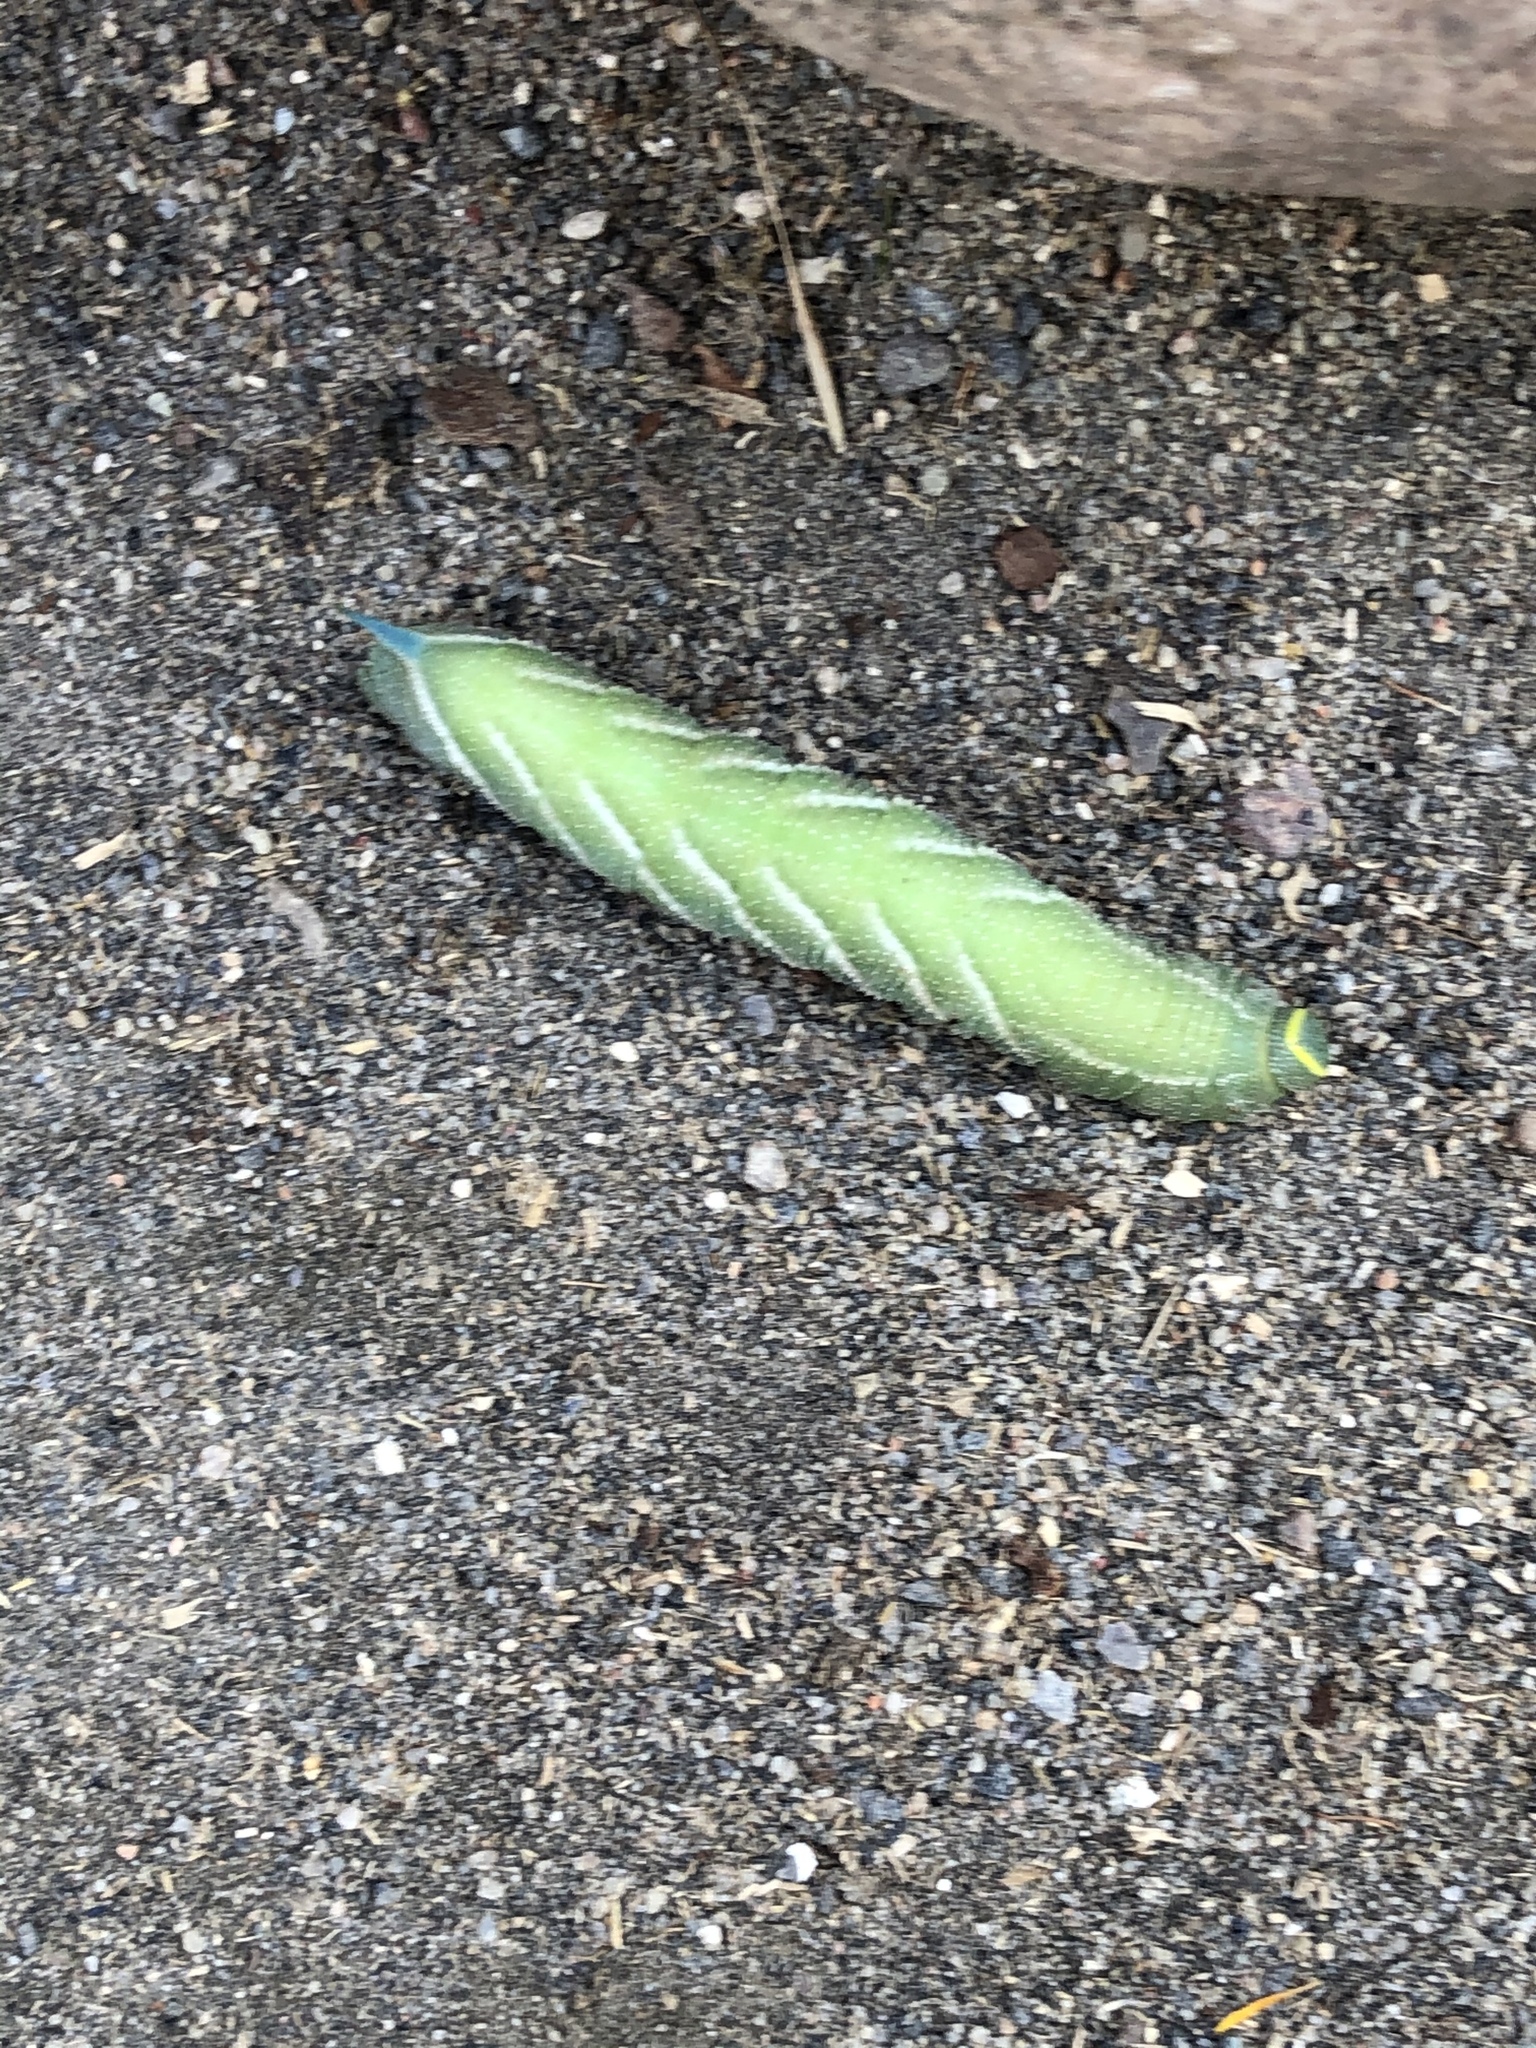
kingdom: Animalia
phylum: Arthropoda
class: Insecta
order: Lepidoptera
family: Sphingidae
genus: Smerinthus
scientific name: Smerinthus ocellata
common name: Eyed hawk-moth
